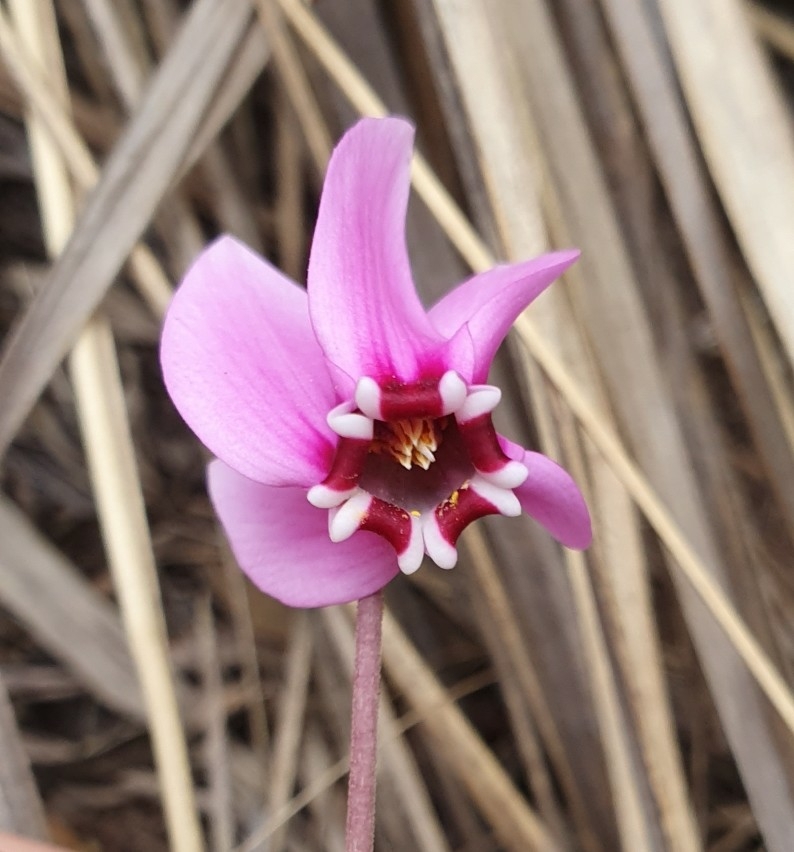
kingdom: Plantae
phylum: Tracheophyta
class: Magnoliopsida
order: Ericales
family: Primulaceae
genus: Cyclamen
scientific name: Cyclamen africanum
